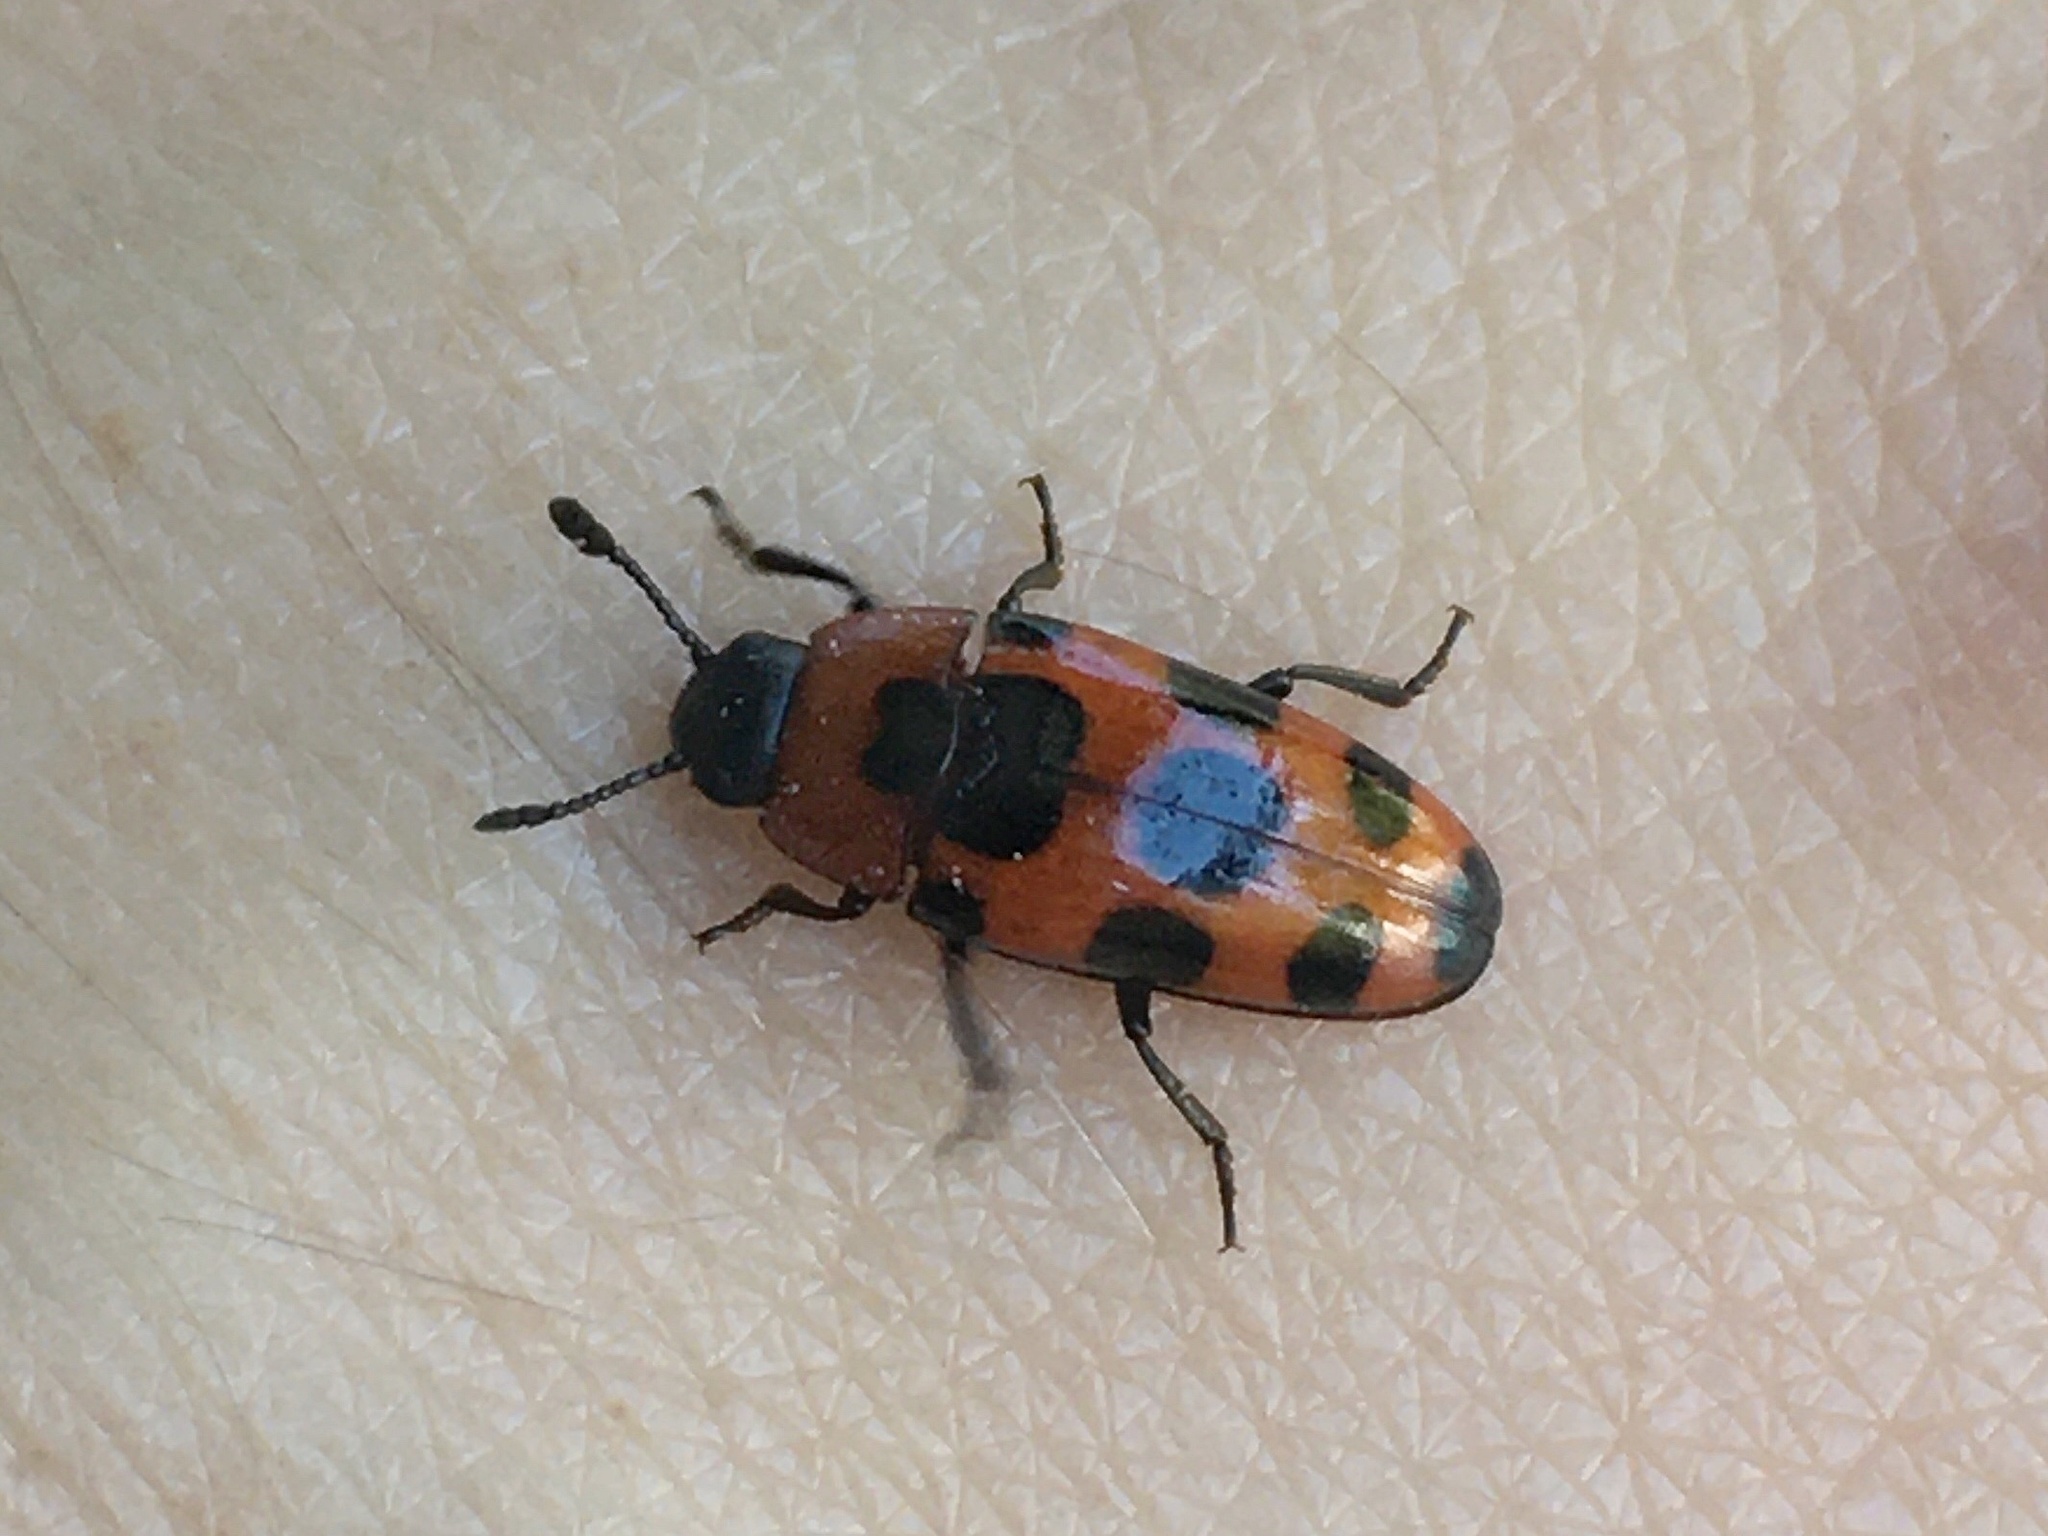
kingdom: Animalia
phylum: Arthropoda
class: Insecta
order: Coleoptera
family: Erotylidae
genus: Episcaphula
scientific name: Episcaphula australis
